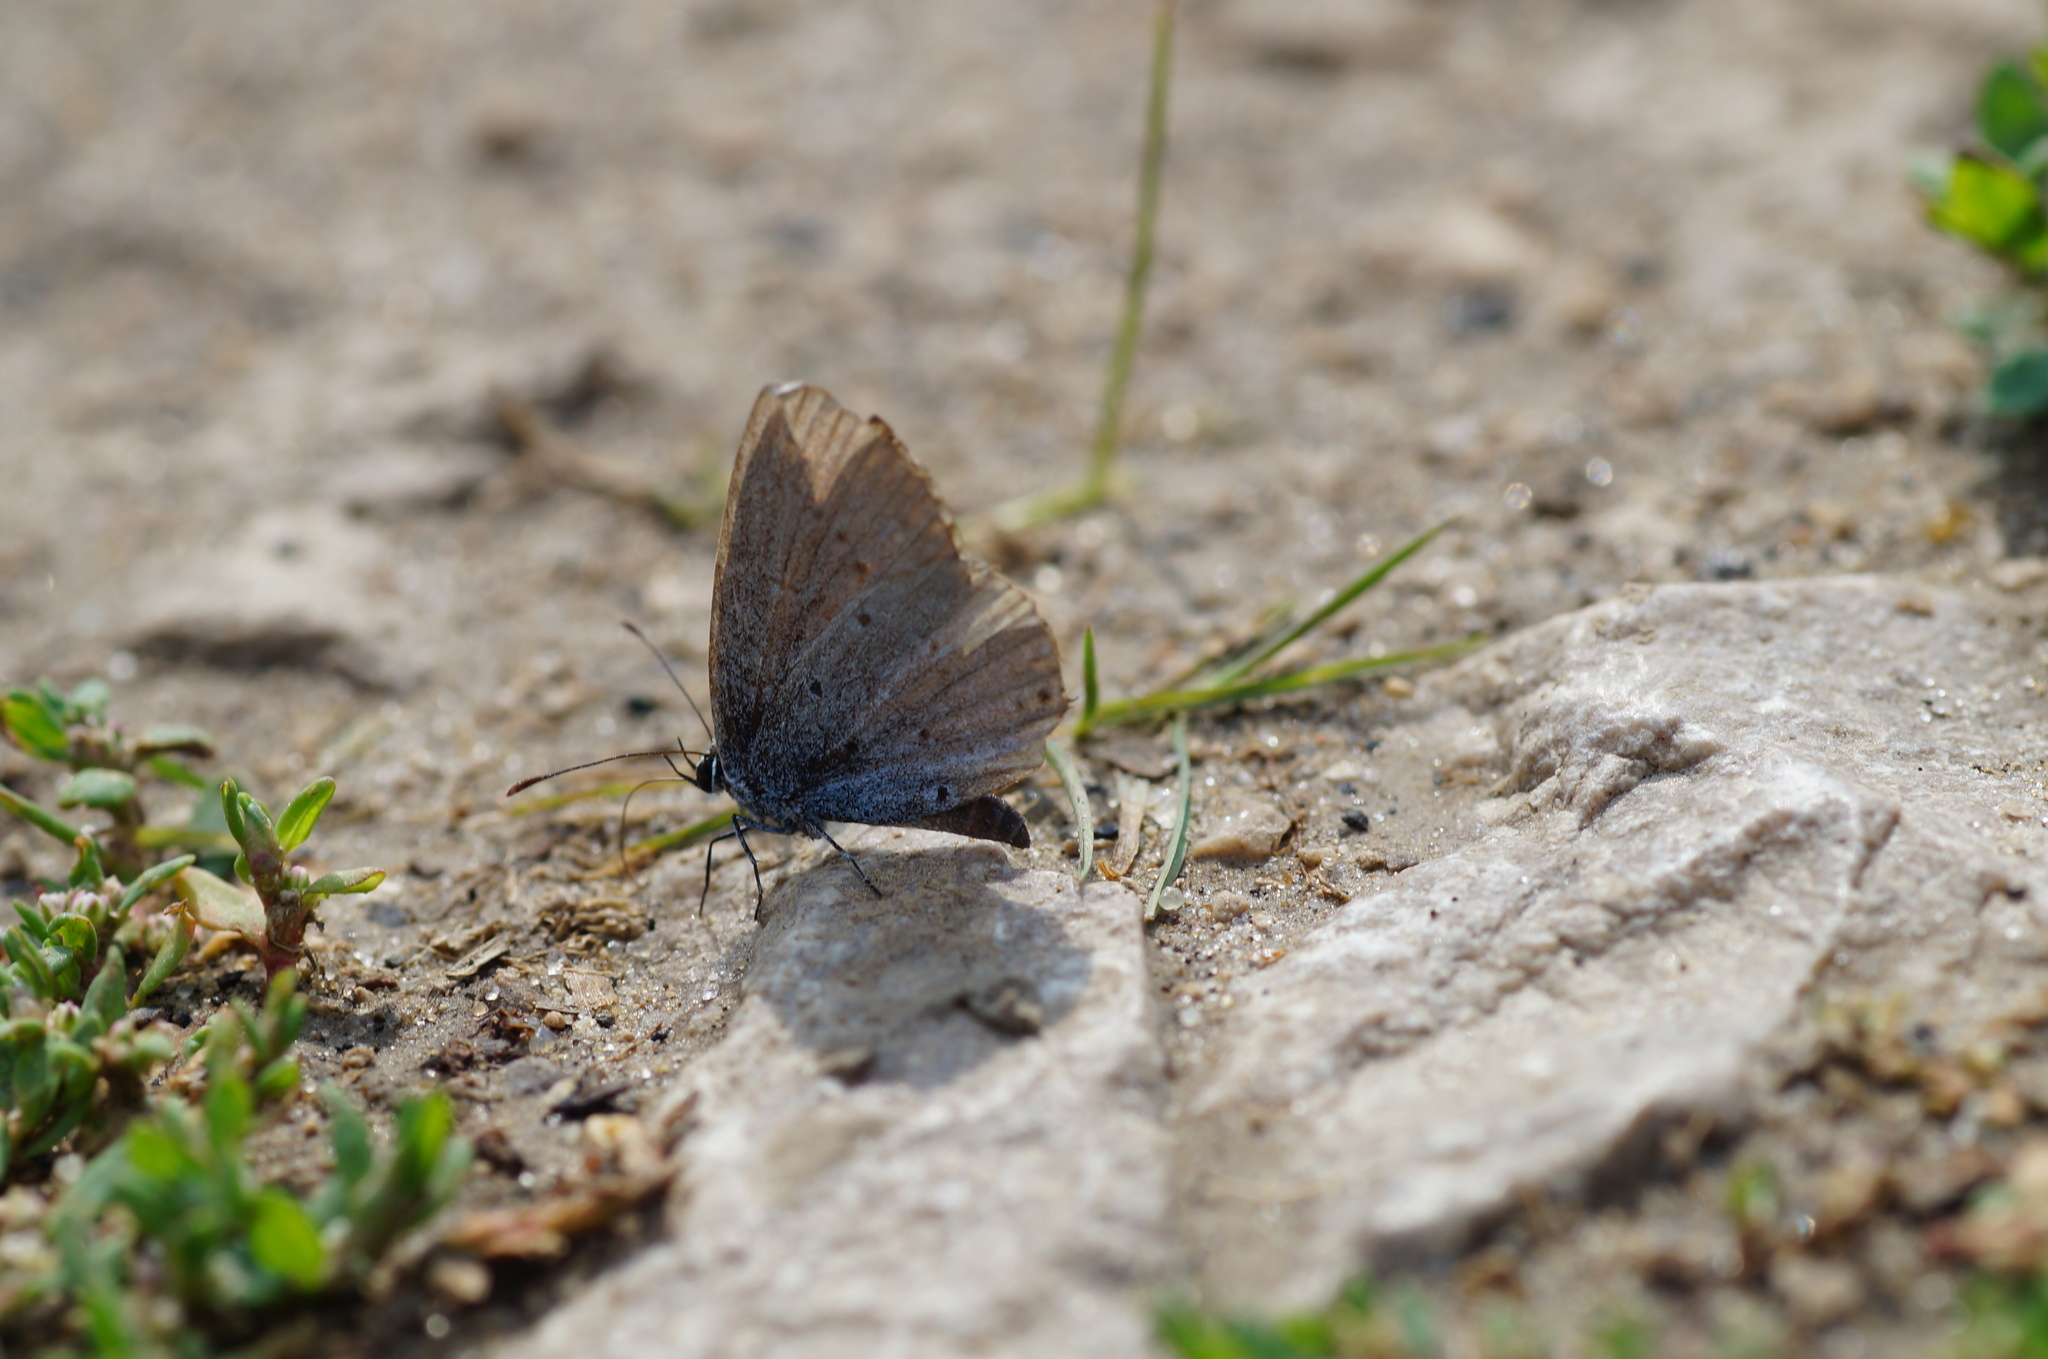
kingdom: Animalia
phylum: Arthropoda
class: Insecta
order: Lepidoptera
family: Lycaenidae
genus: Elkalyce
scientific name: Elkalyce argiades
